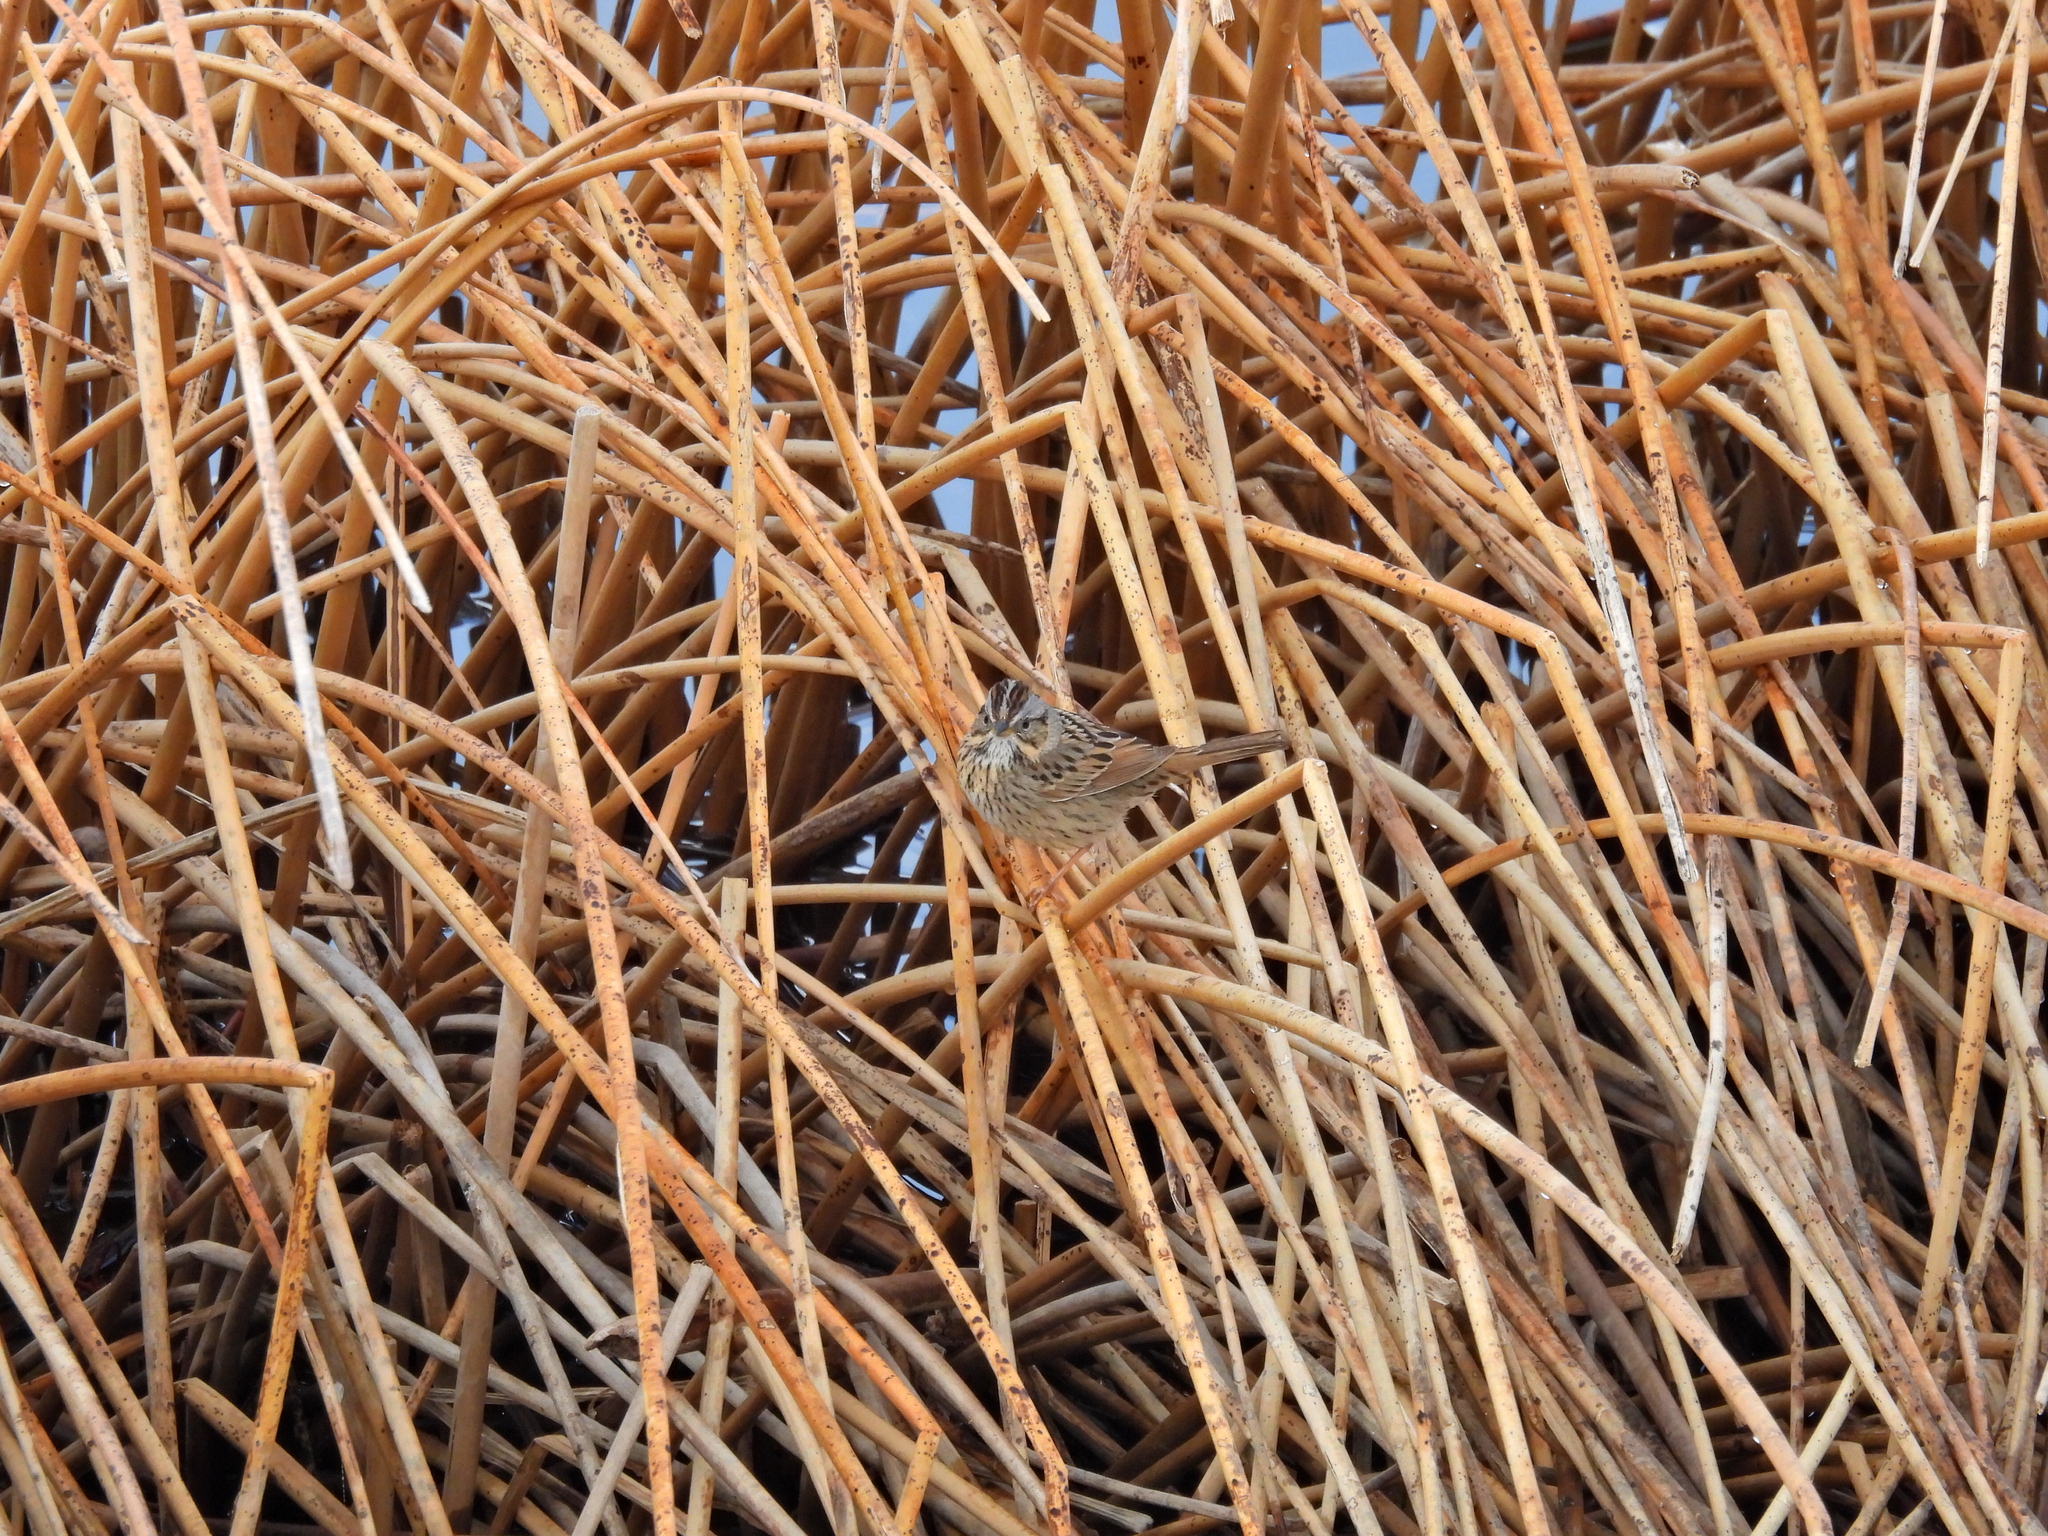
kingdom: Animalia
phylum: Chordata
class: Aves
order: Passeriformes
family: Passerellidae
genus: Melospiza
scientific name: Melospiza lincolnii
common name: Lincoln's sparrow
